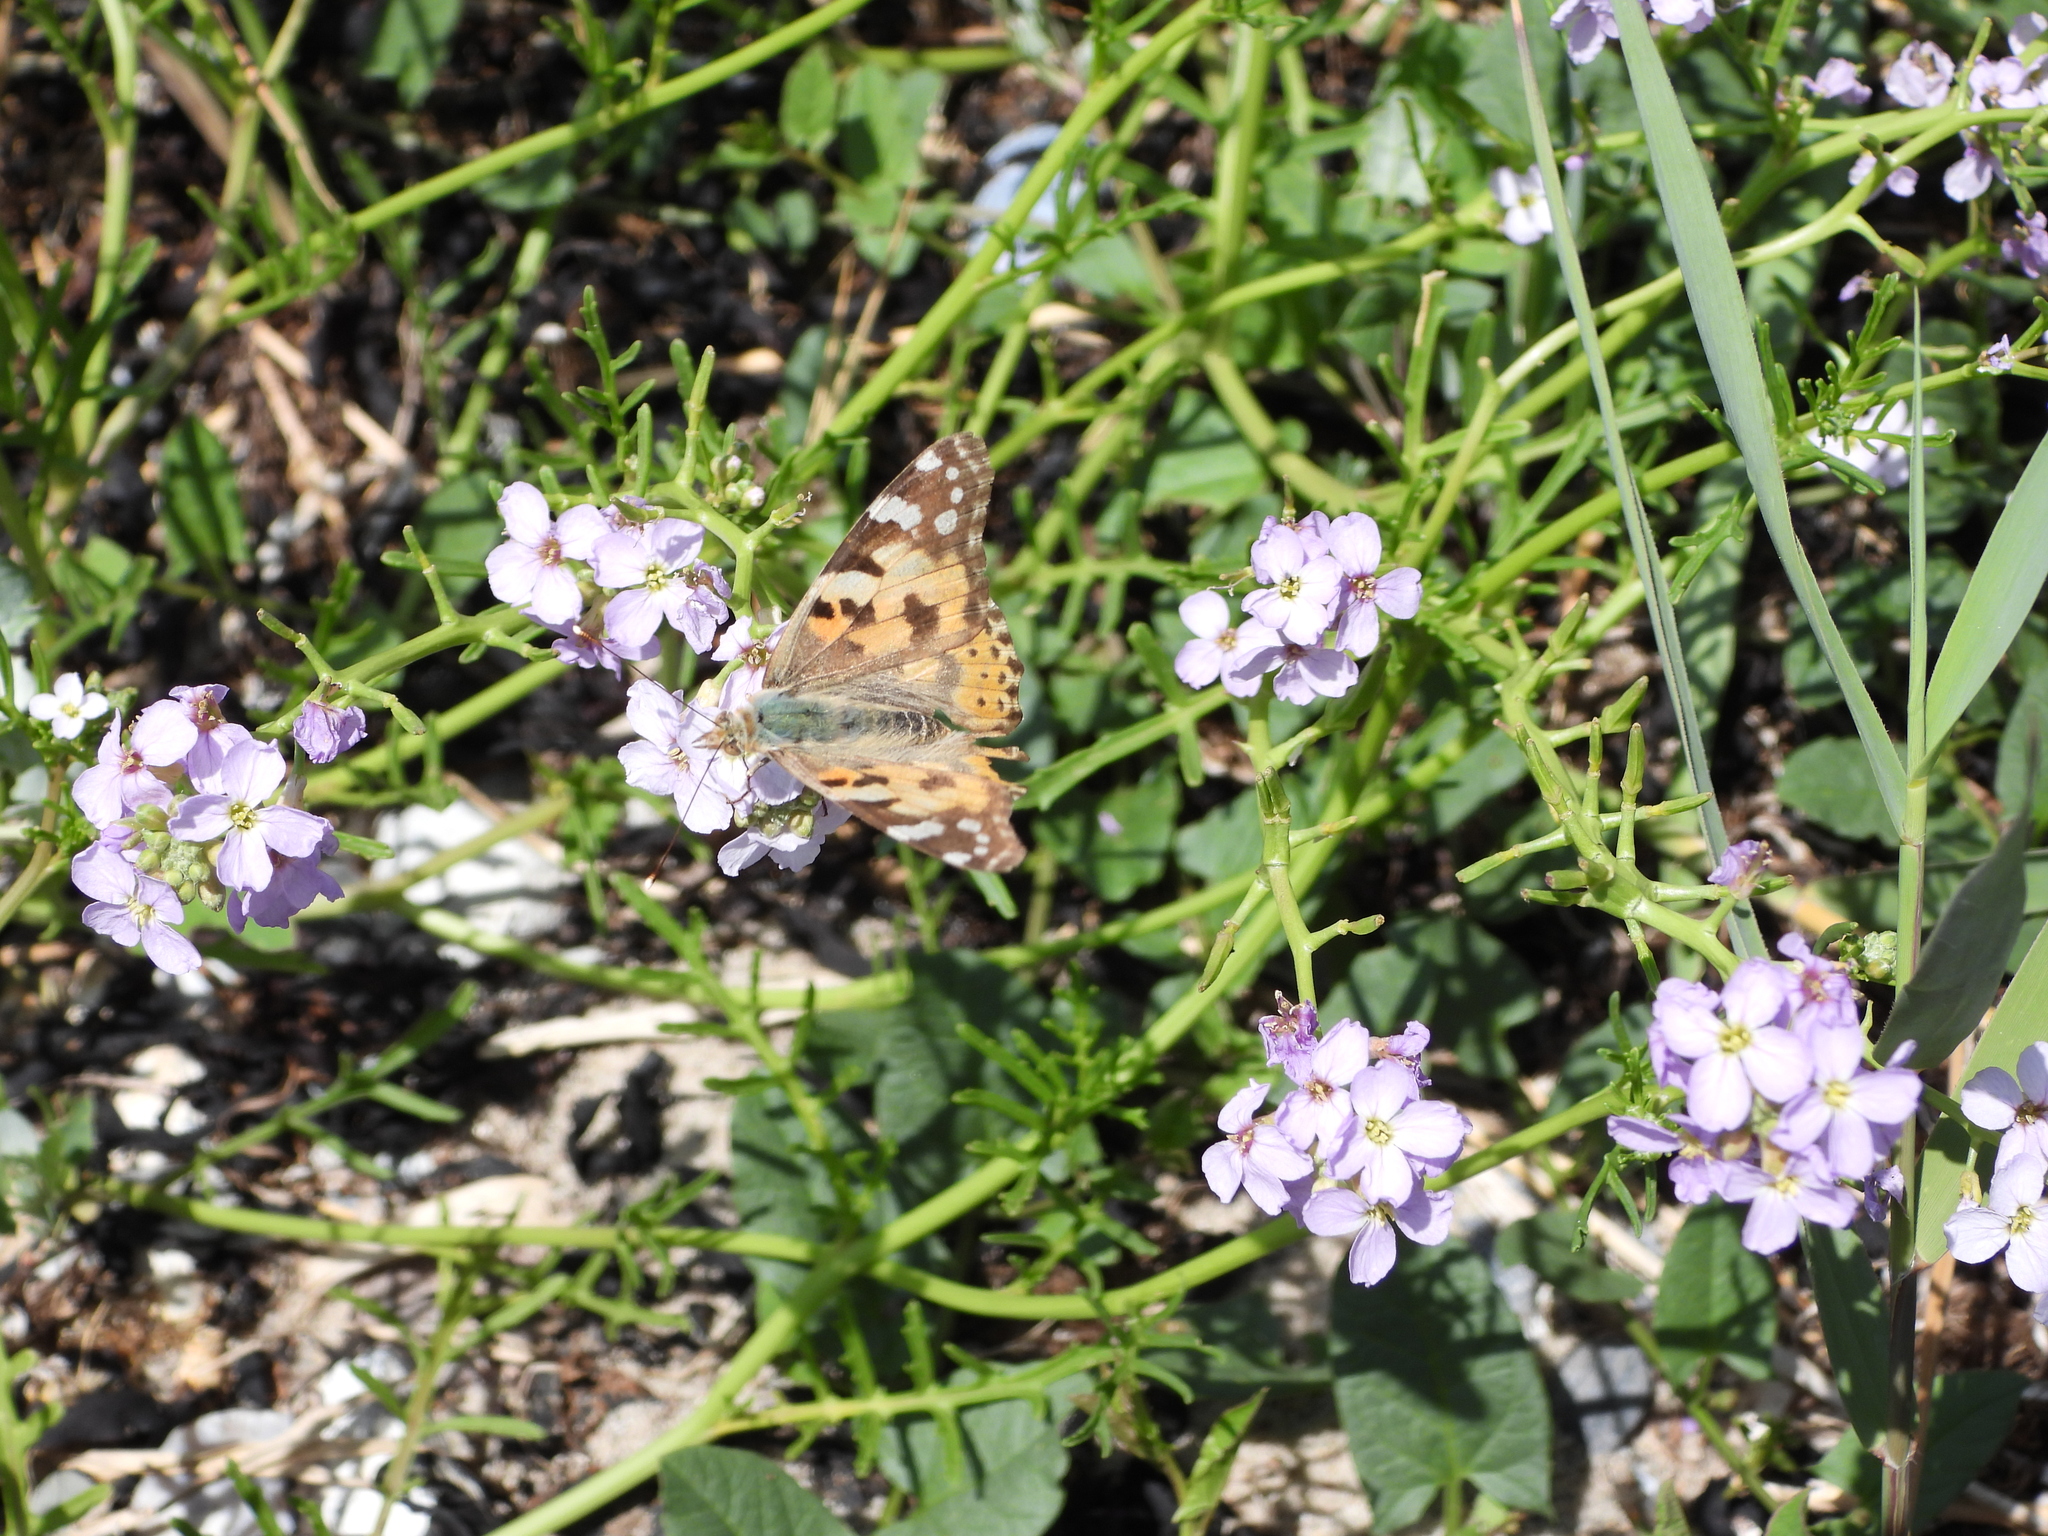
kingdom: Animalia
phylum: Arthropoda
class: Insecta
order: Lepidoptera
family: Nymphalidae
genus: Vanessa
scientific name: Vanessa cardui
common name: Painted lady
